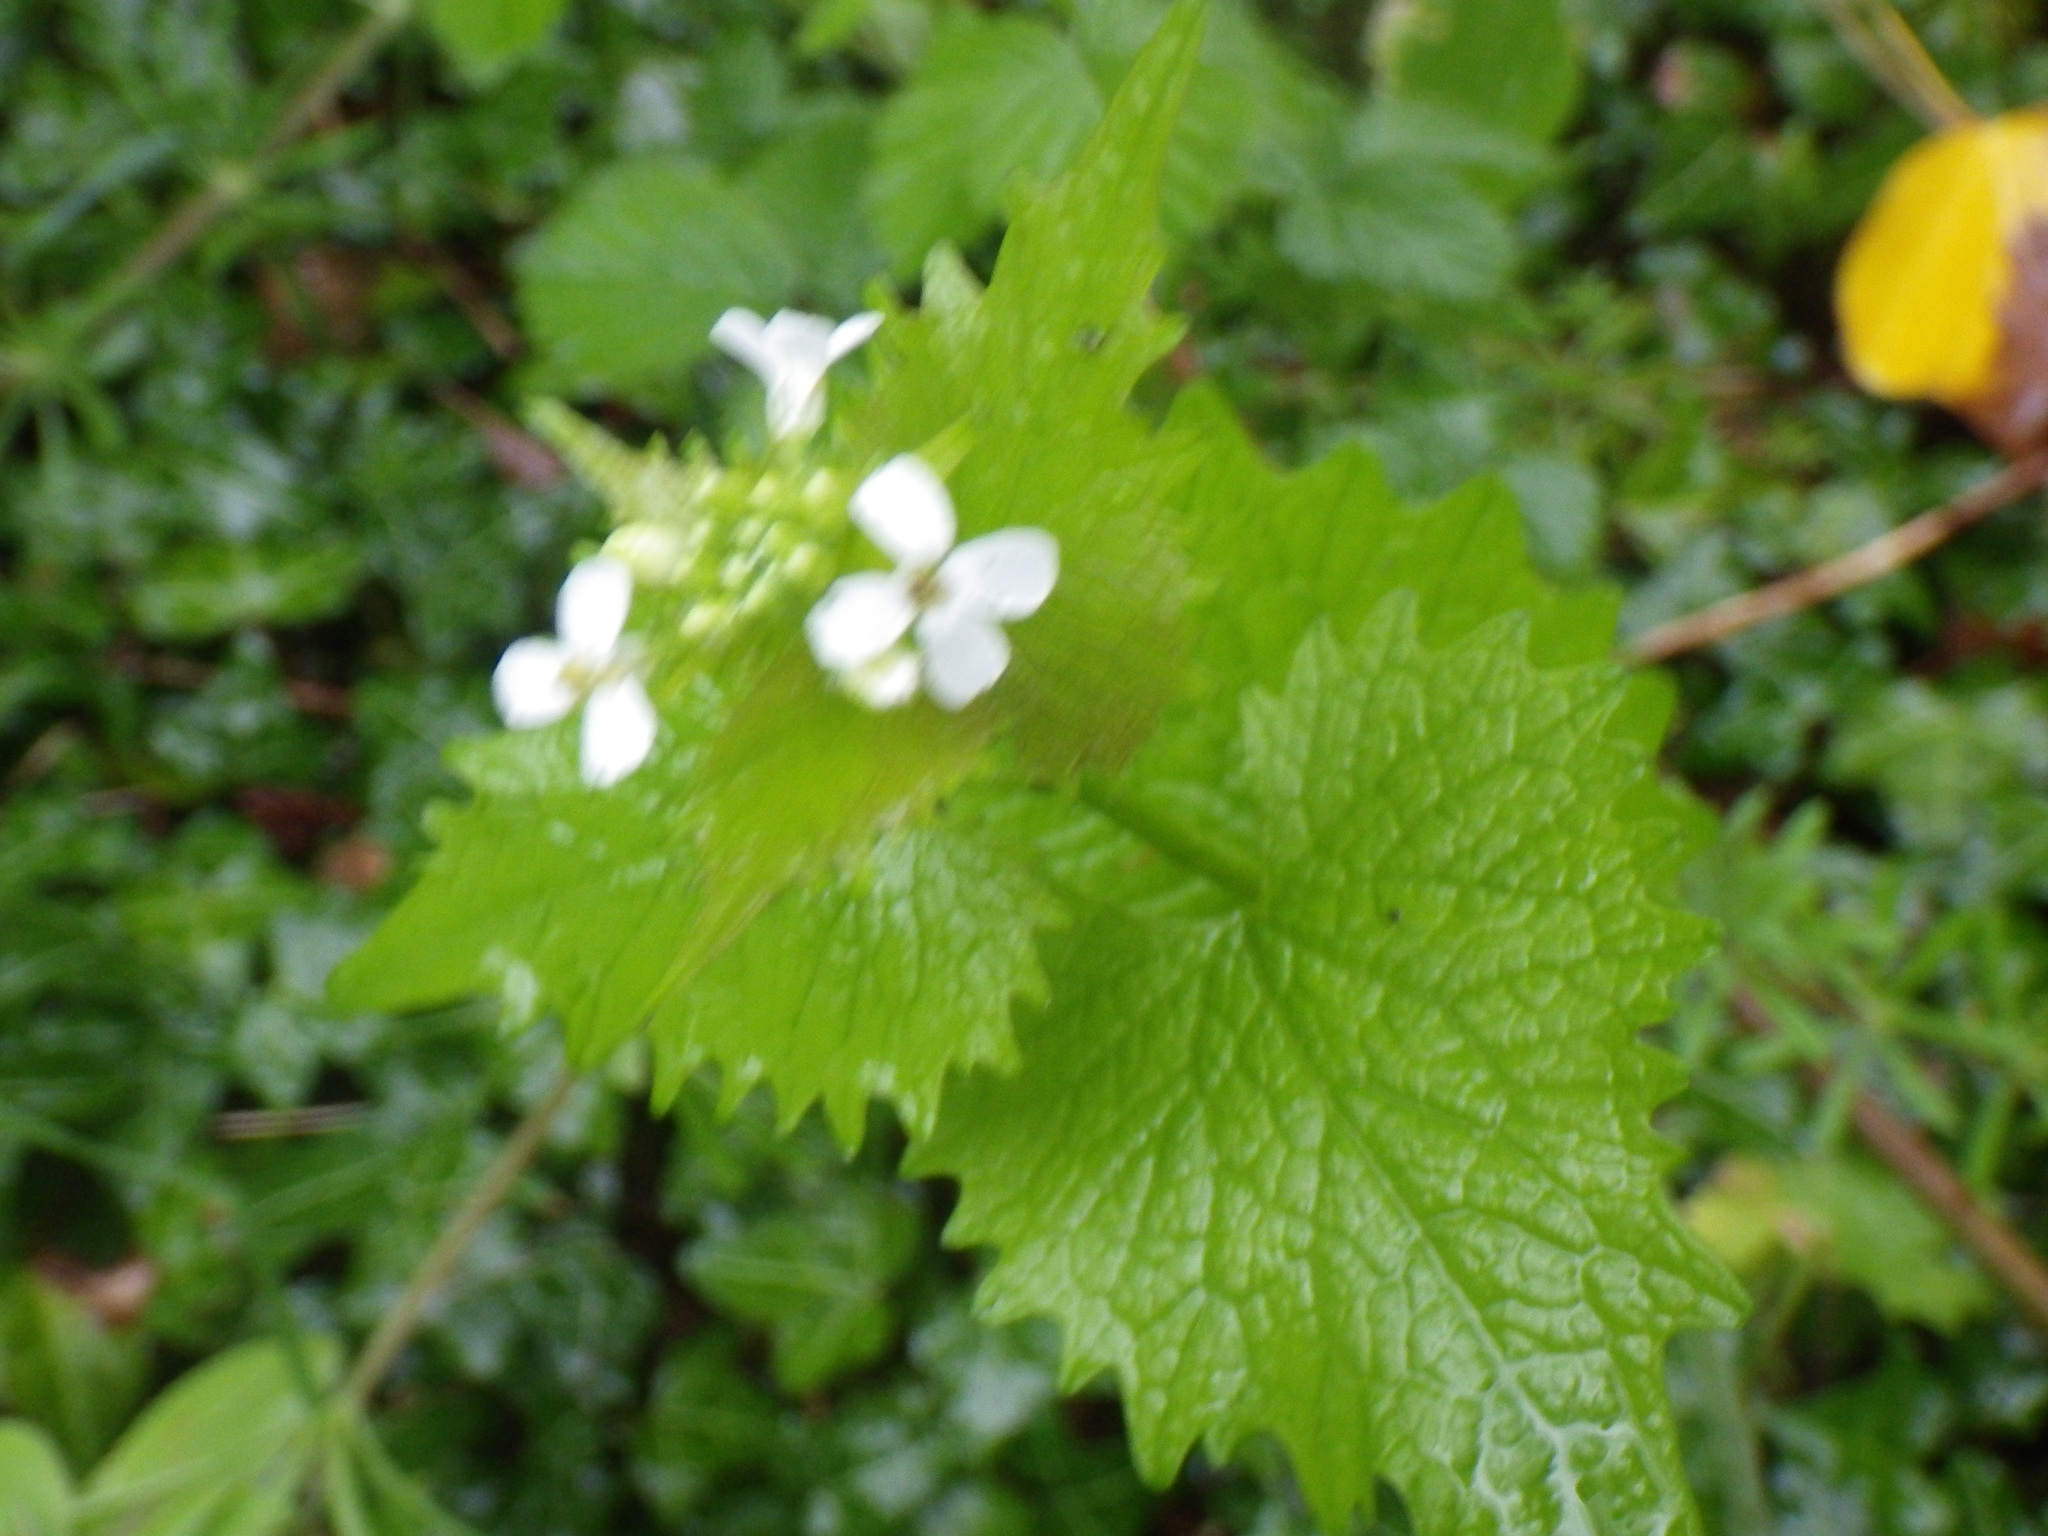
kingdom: Plantae
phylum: Tracheophyta
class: Magnoliopsida
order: Brassicales
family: Brassicaceae
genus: Alliaria
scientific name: Alliaria petiolata
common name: Garlic mustard
